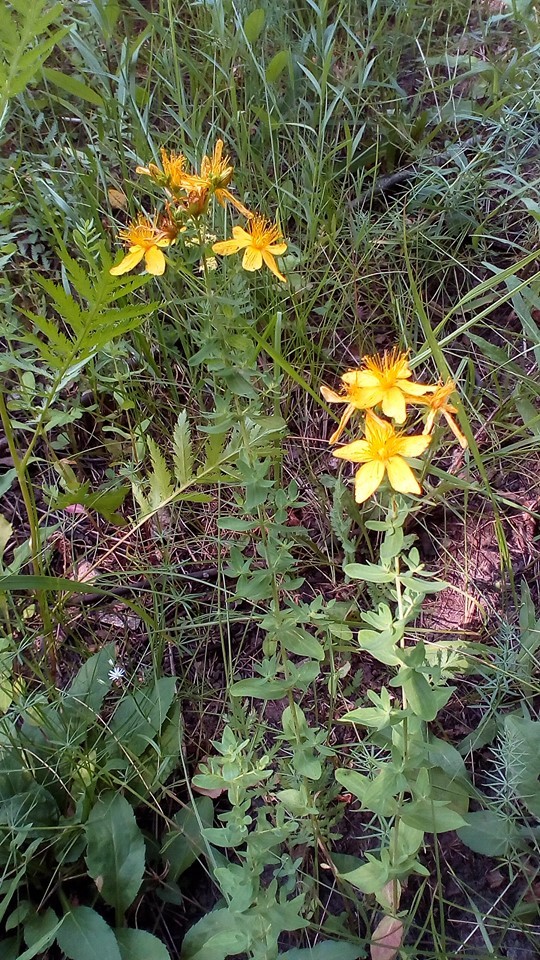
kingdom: Plantae
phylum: Tracheophyta
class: Magnoliopsida
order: Malpighiales
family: Hypericaceae
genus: Hypericum
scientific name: Hypericum perforatum
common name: Common st. johnswort
